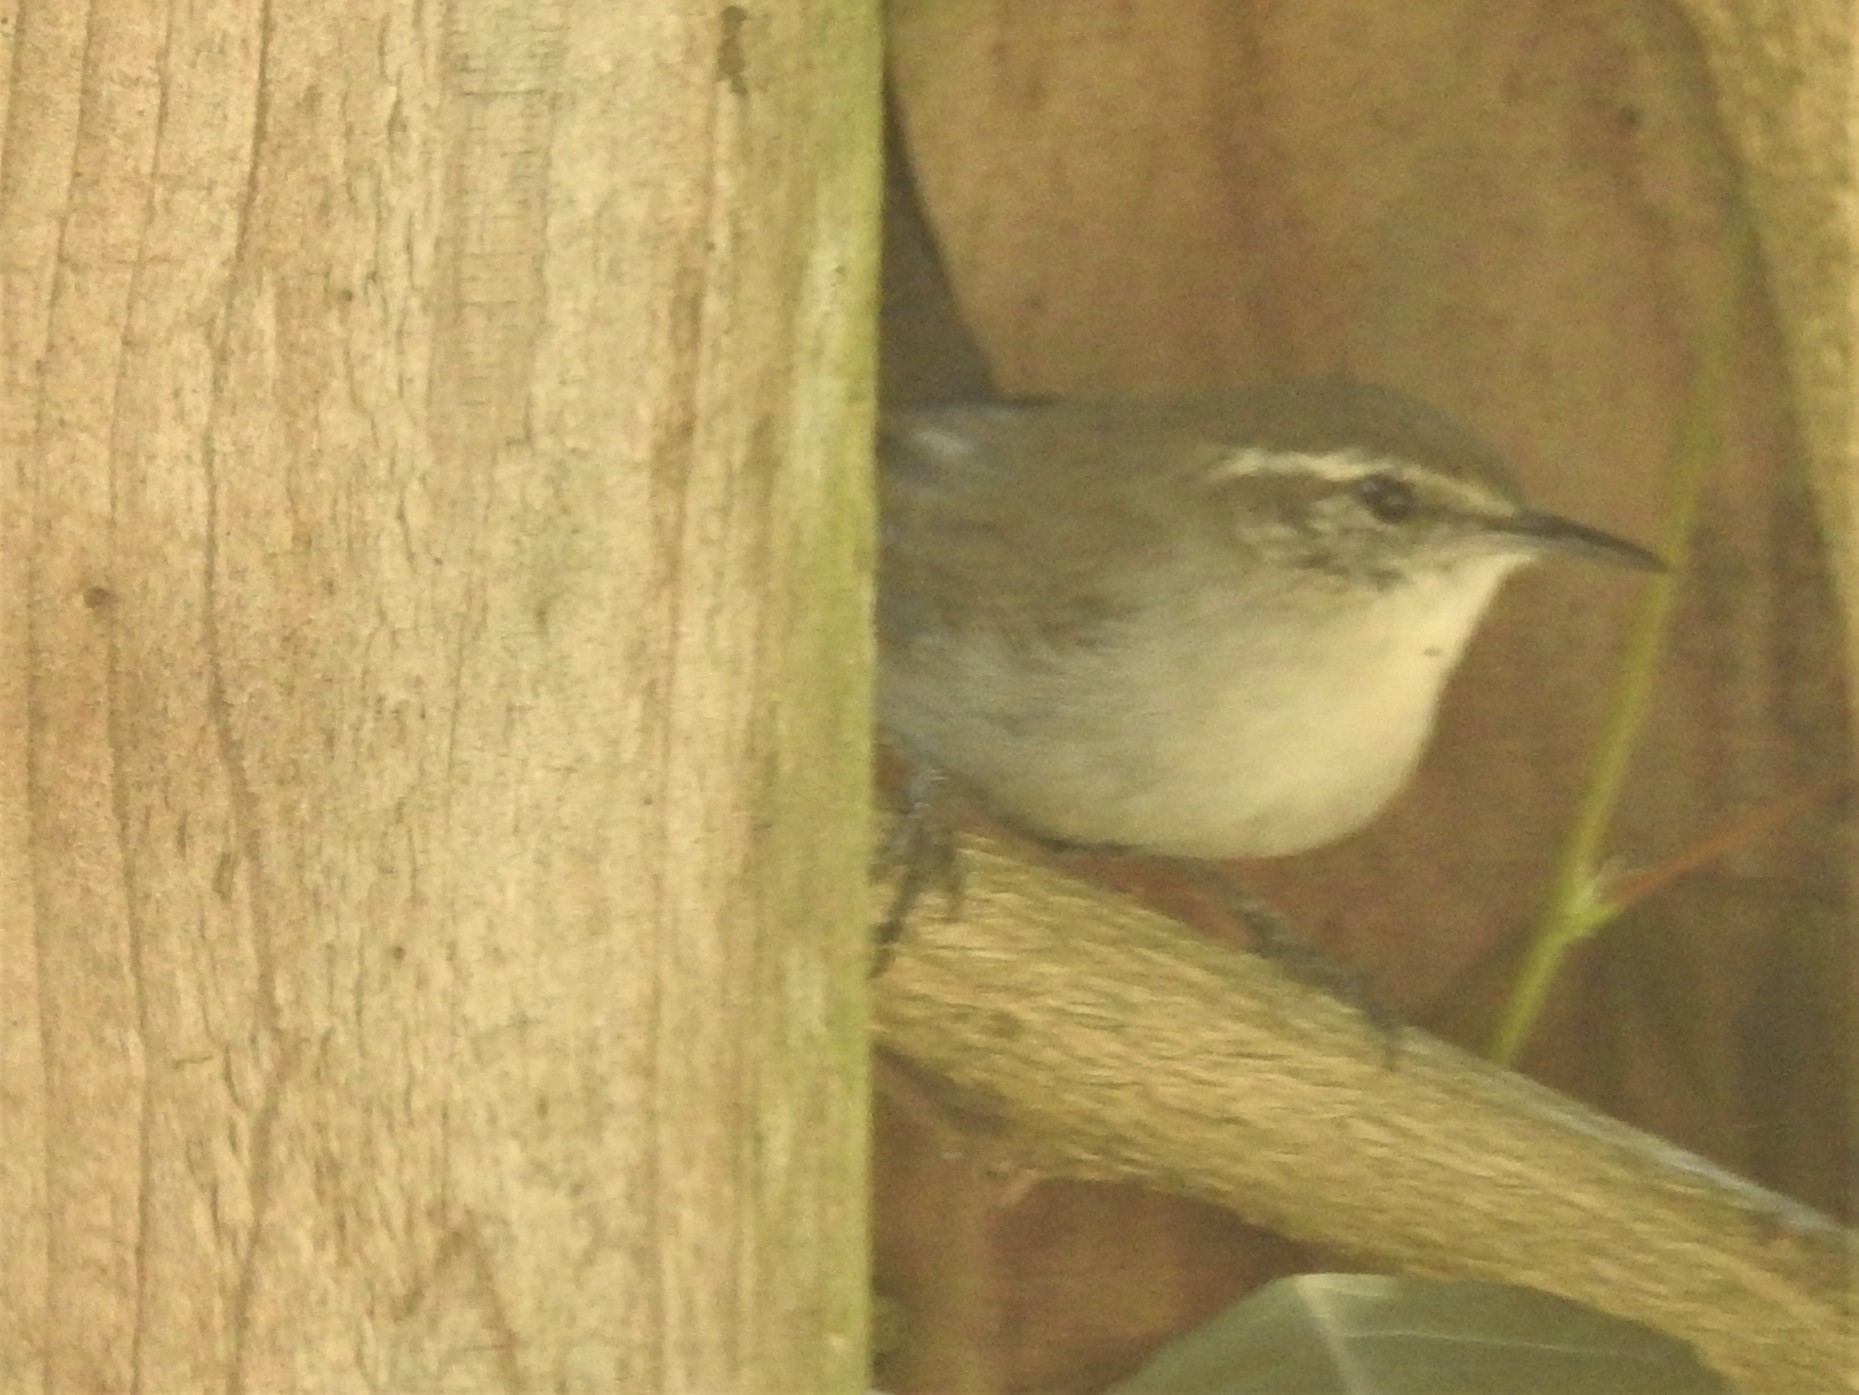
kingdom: Animalia
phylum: Chordata
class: Aves
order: Passeriformes
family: Troglodytidae
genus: Thryomanes
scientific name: Thryomanes bewickii
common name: Bewick's wren
